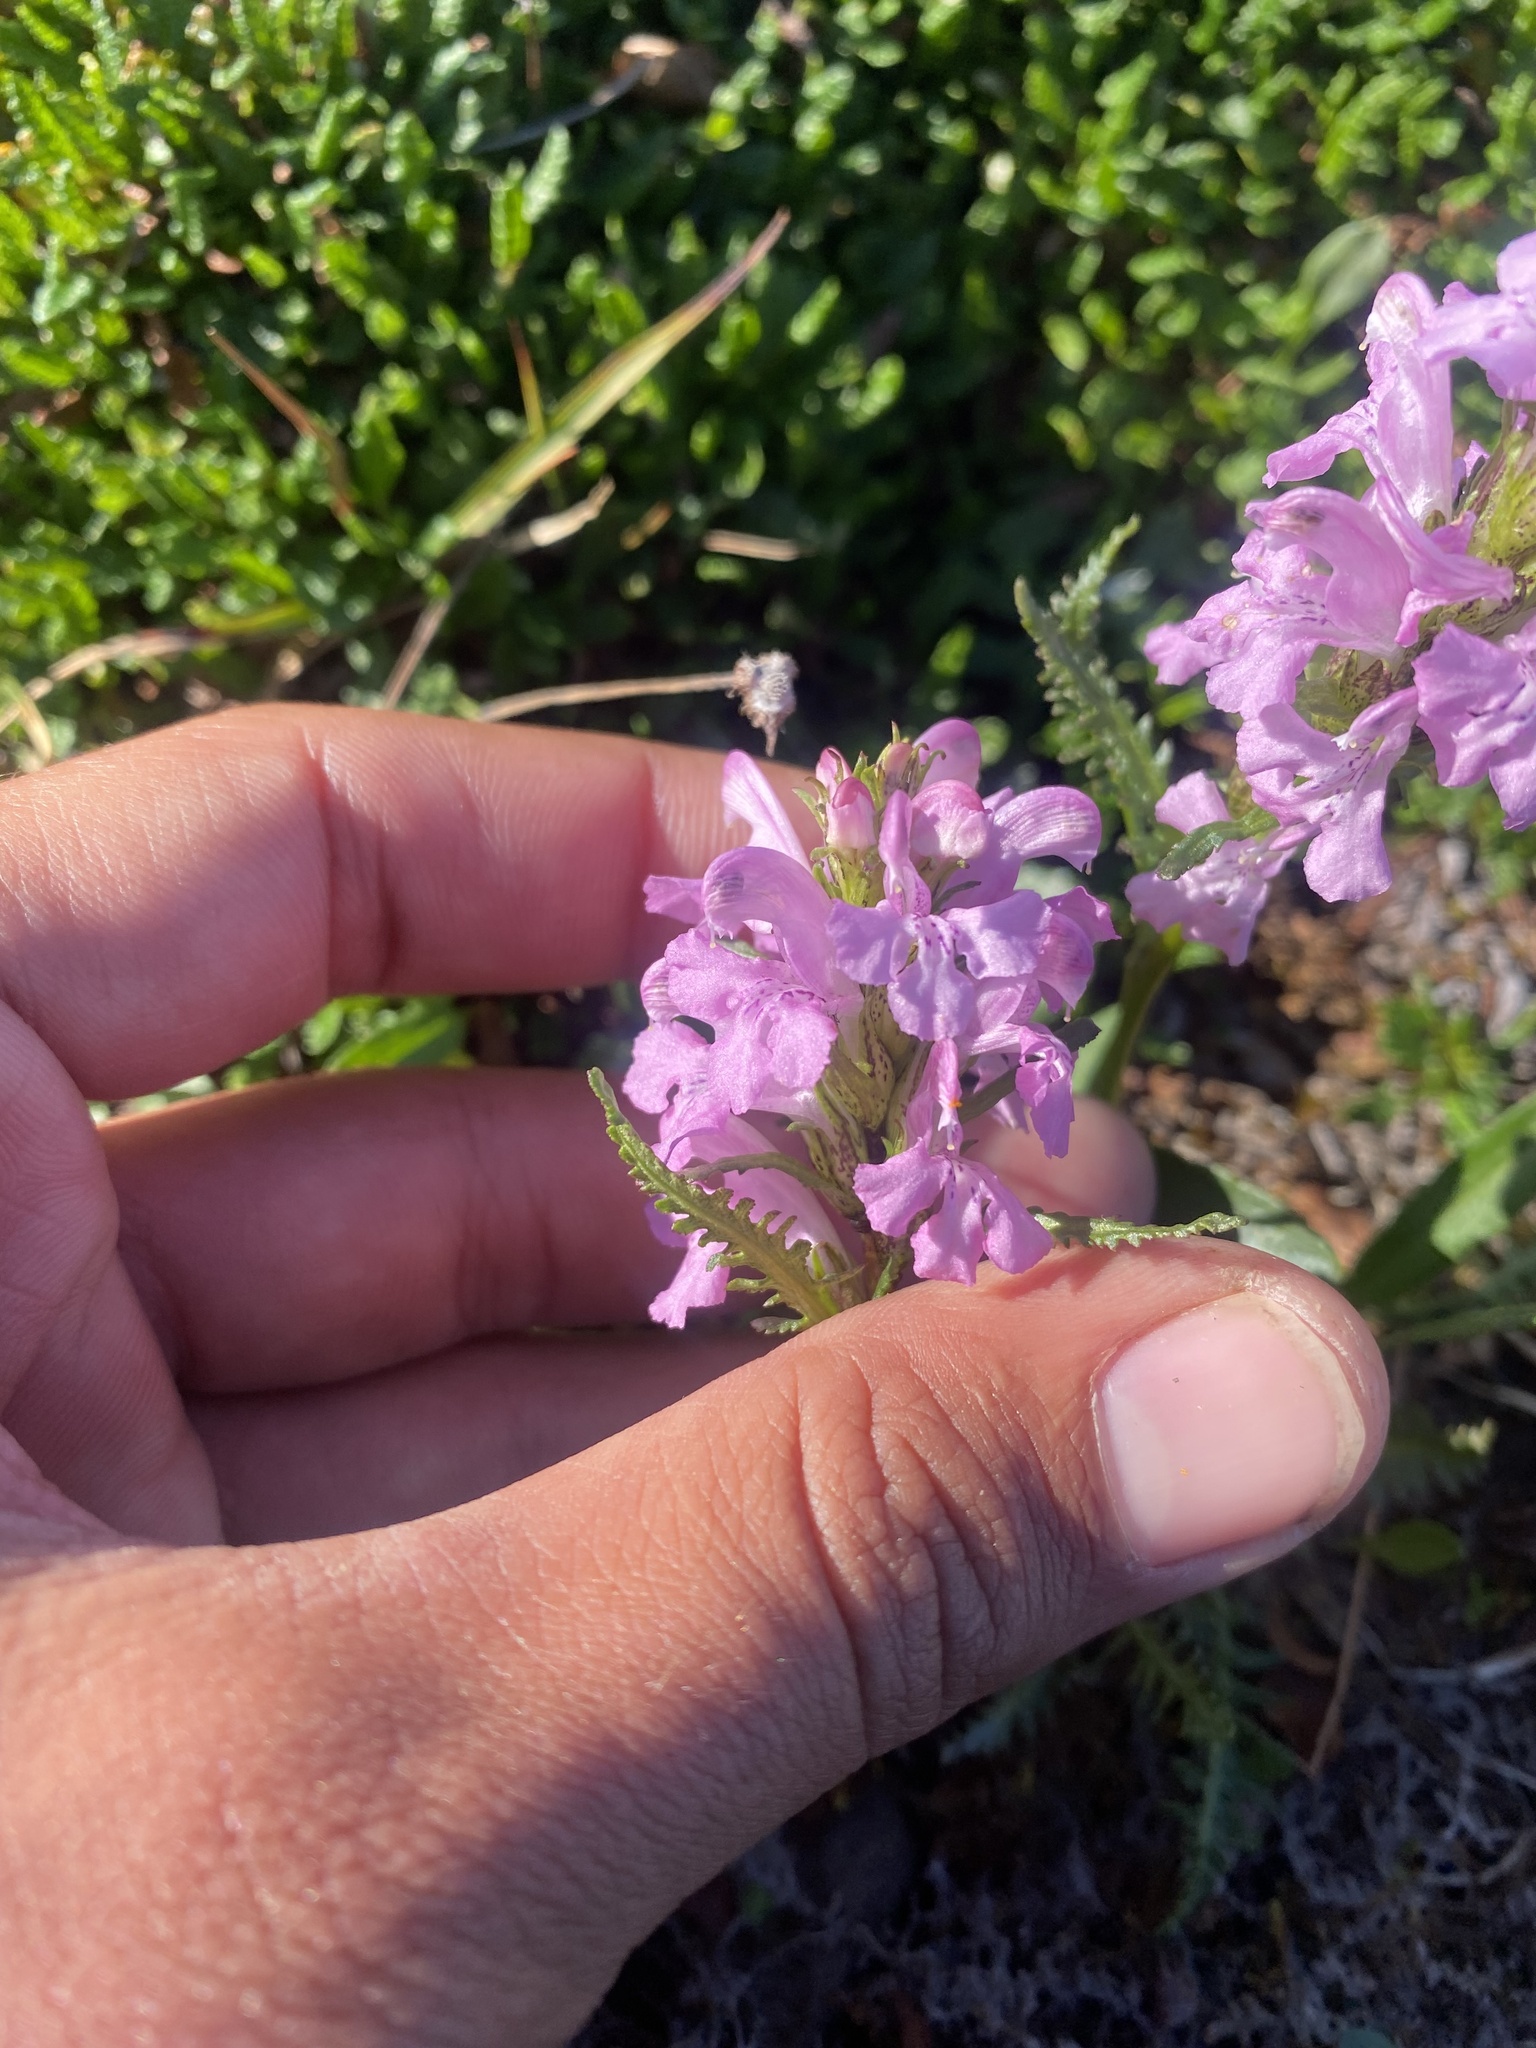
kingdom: Plantae
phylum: Tracheophyta
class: Magnoliopsida
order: Lamiales
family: Orobanchaceae
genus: Pedicularis
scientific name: Pedicularis interior
